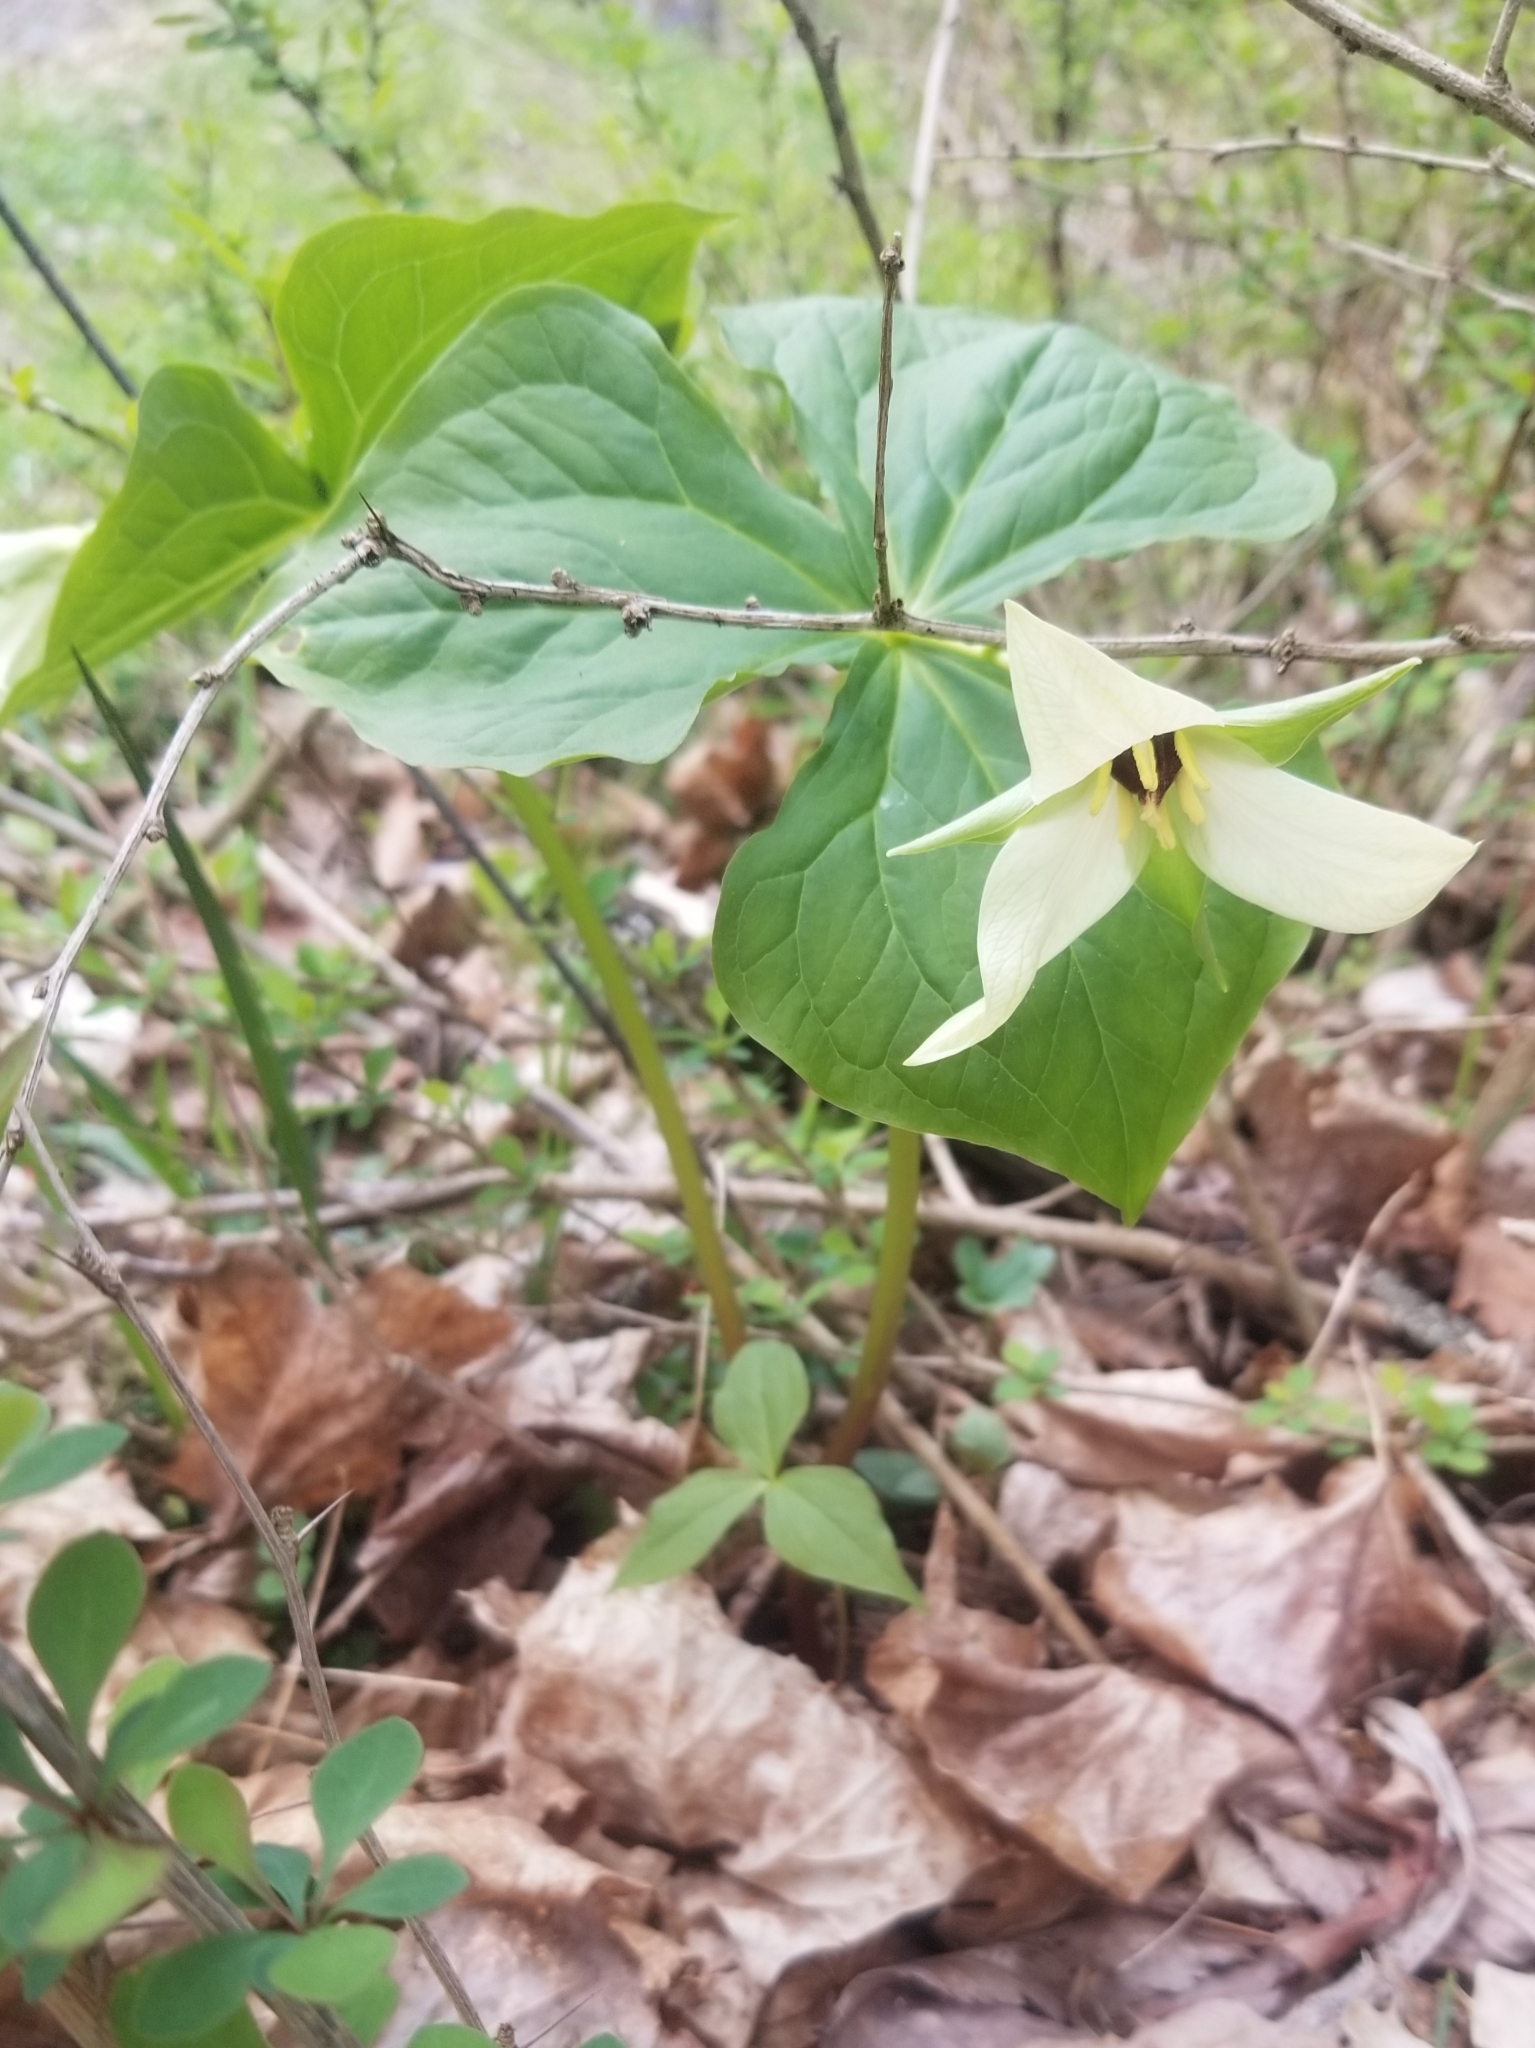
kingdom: Plantae
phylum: Tracheophyta
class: Liliopsida
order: Liliales
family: Melanthiaceae
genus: Trillium
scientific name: Trillium erectum
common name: Purple trillium
